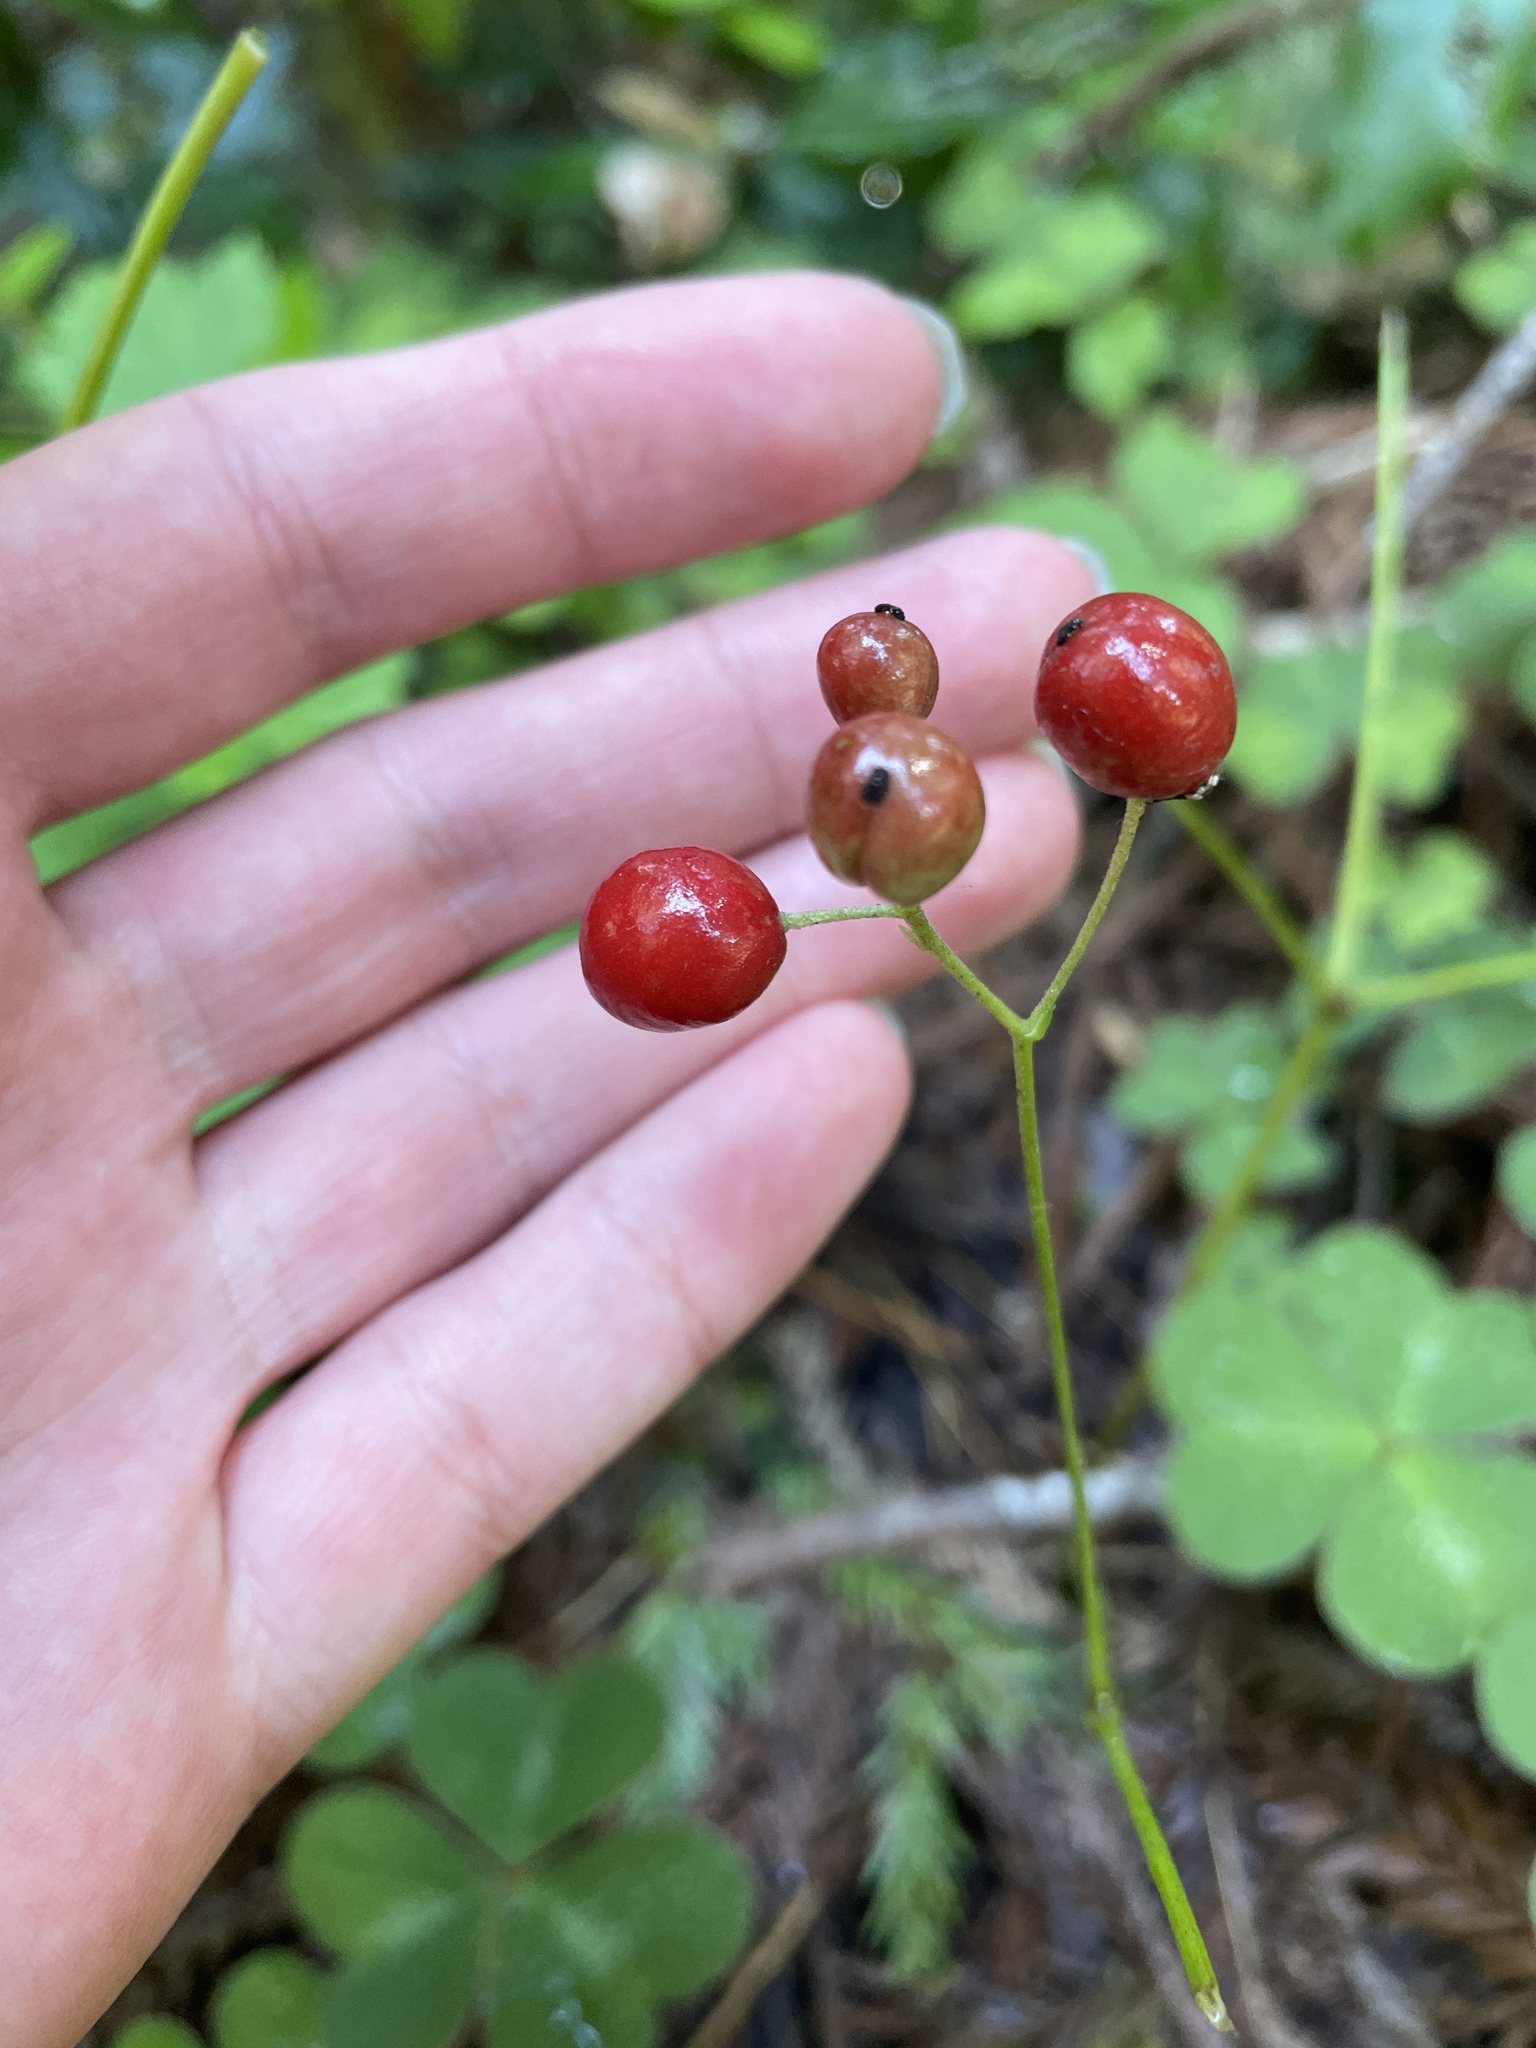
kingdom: Plantae
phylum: Tracheophyta
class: Magnoliopsida
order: Ranunculales
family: Ranunculaceae
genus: Actaea
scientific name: Actaea rubra
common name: Red baneberry
